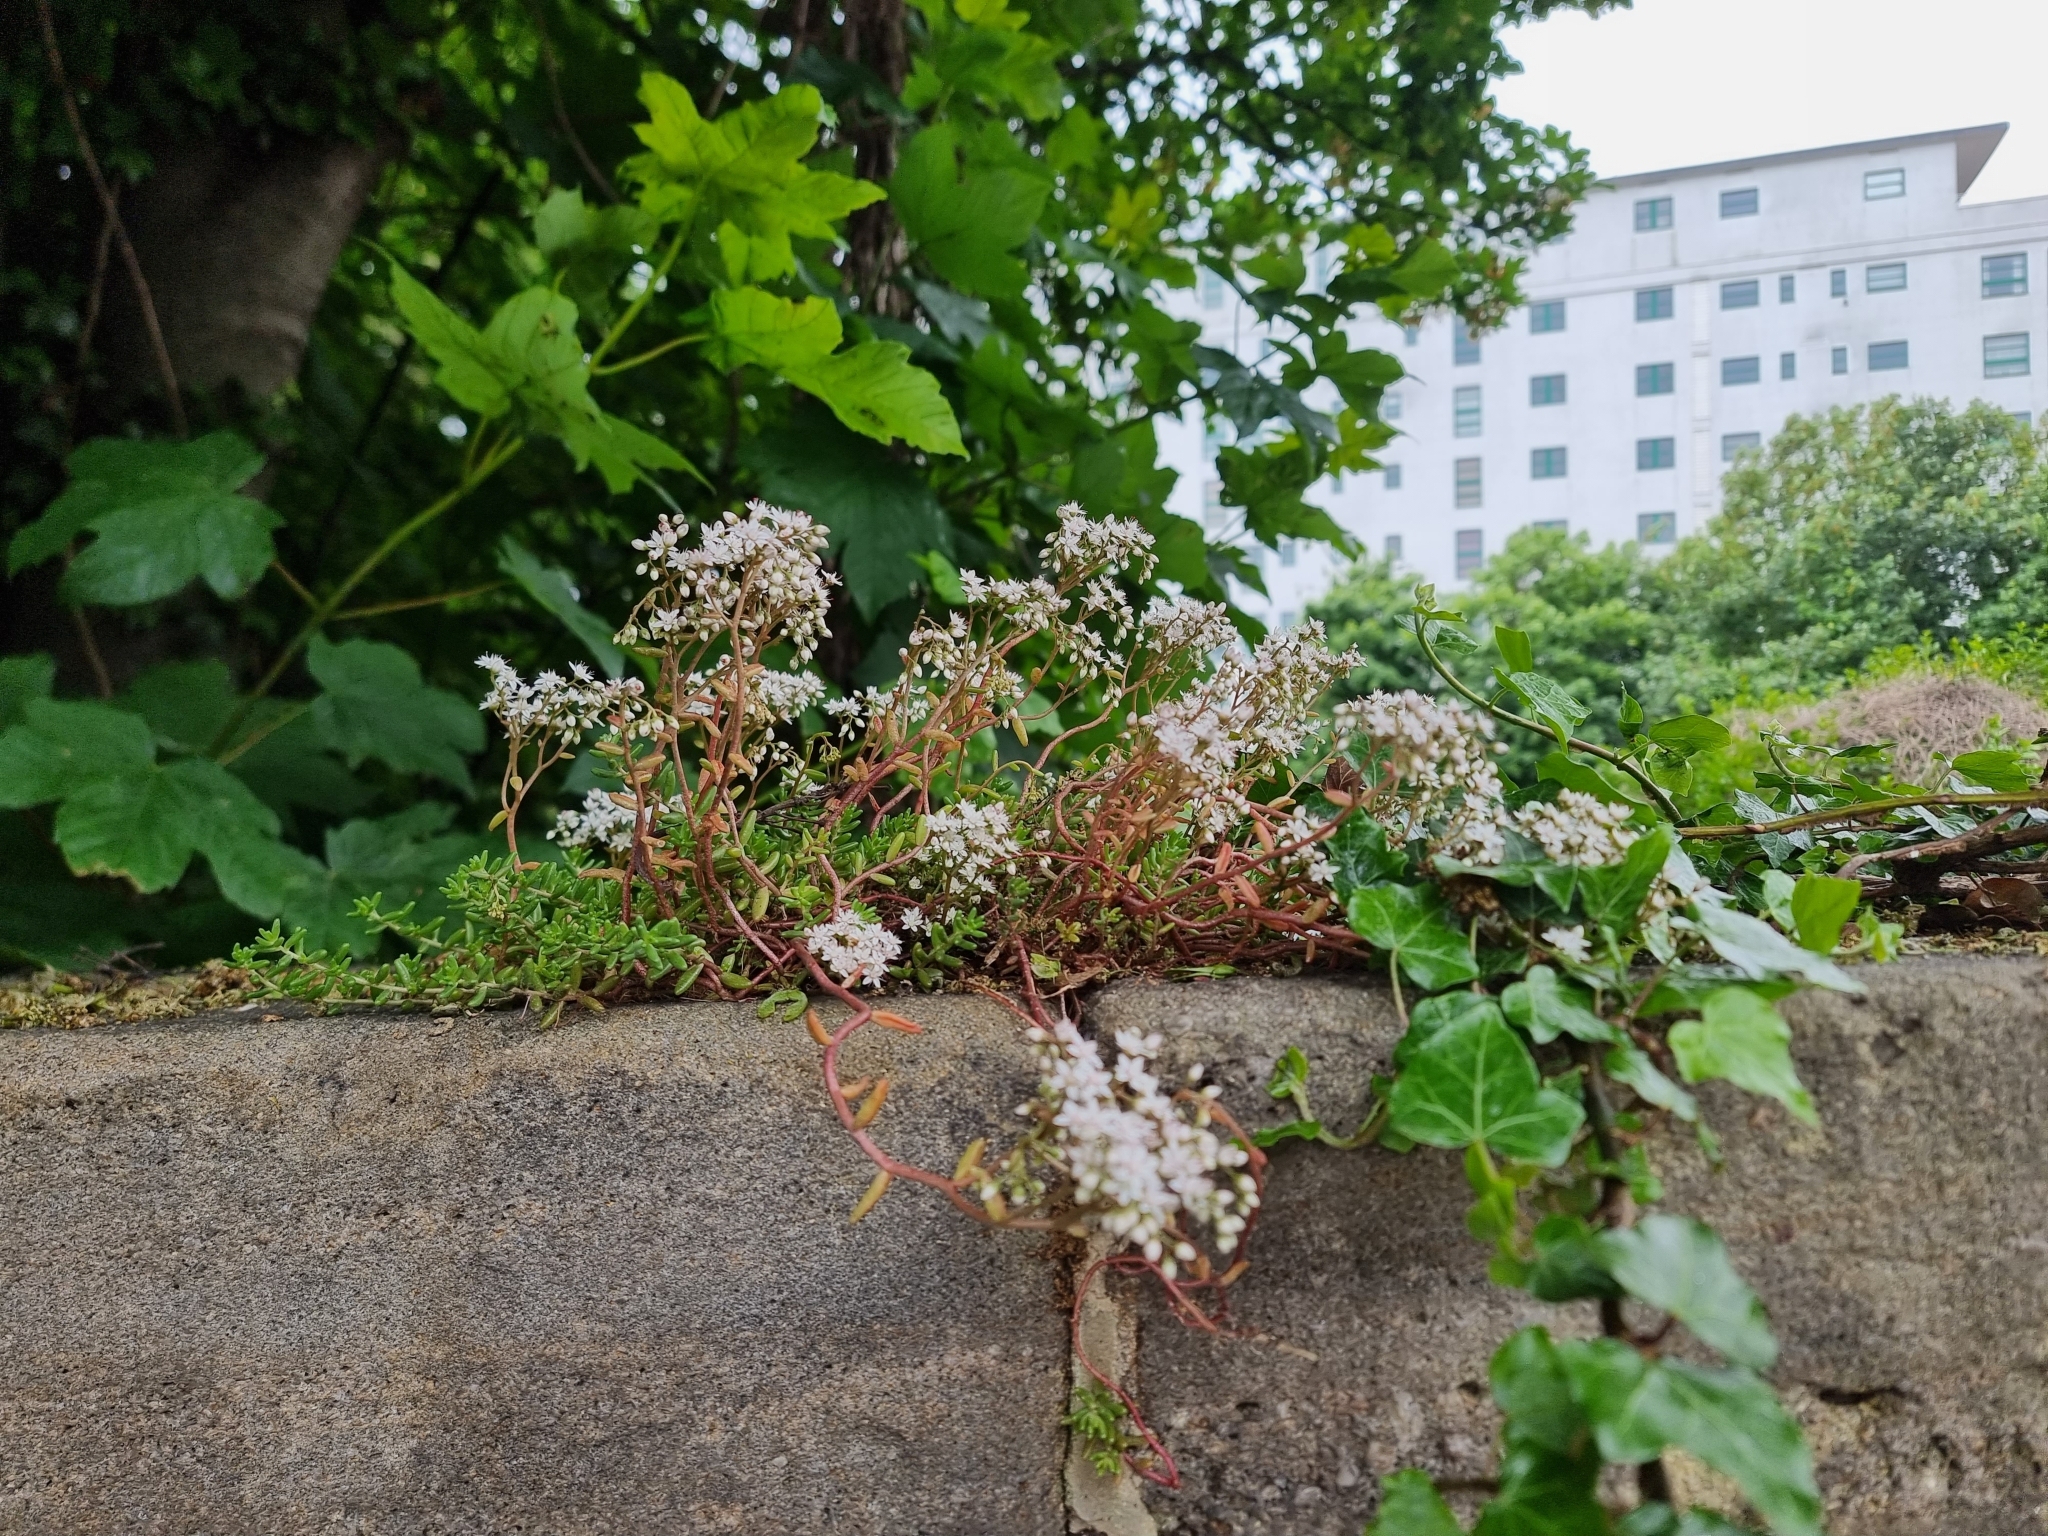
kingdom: Plantae
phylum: Tracheophyta
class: Magnoliopsida
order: Saxifragales
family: Crassulaceae
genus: Sedum
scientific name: Sedum album
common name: White stonecrop
